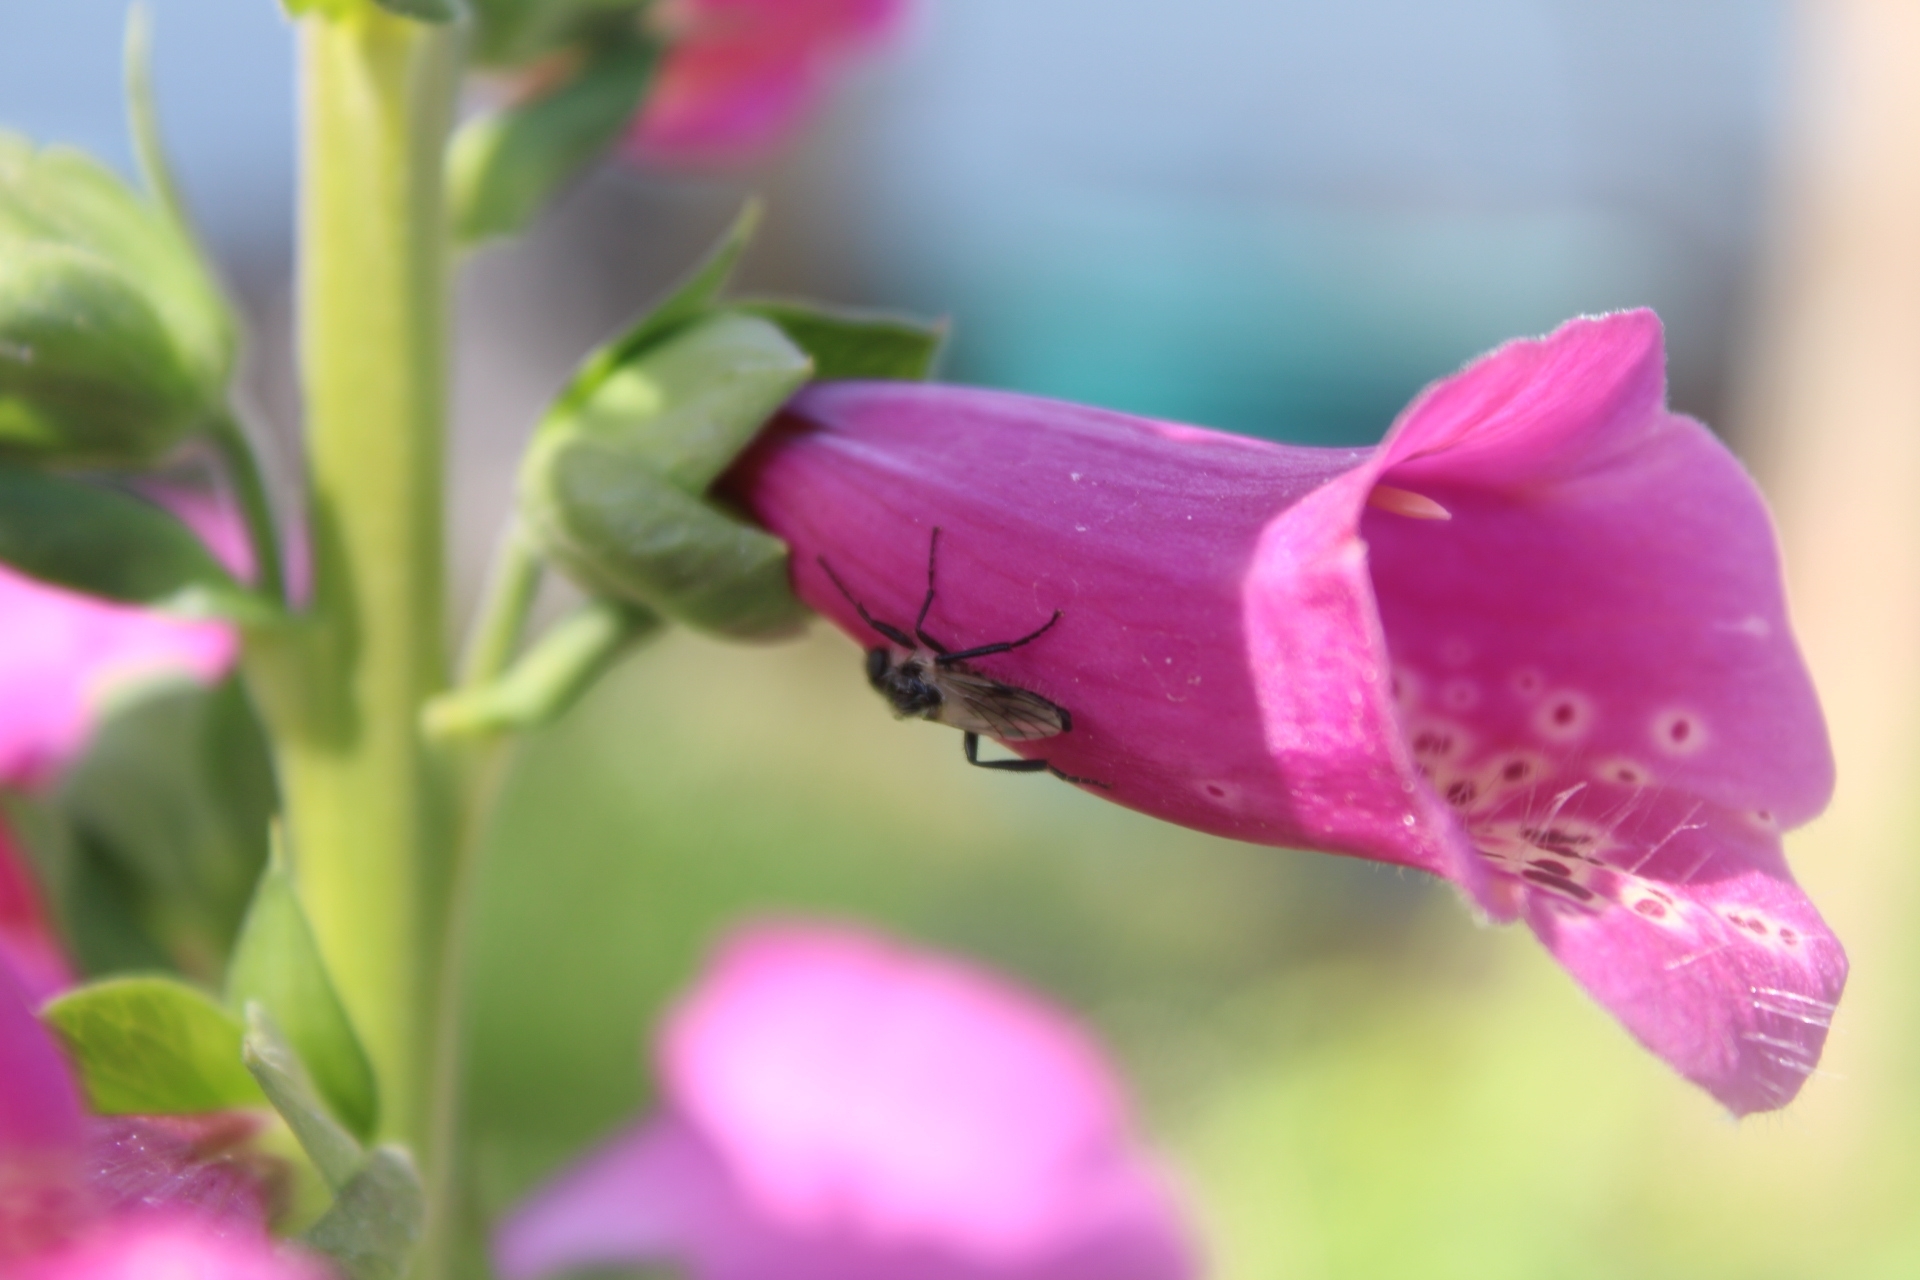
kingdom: Animalia
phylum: Arthropoda
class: Insecta
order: Diptera
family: Bibionidae
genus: Bibio
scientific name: Bibio albipennis
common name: White-winged march fly
